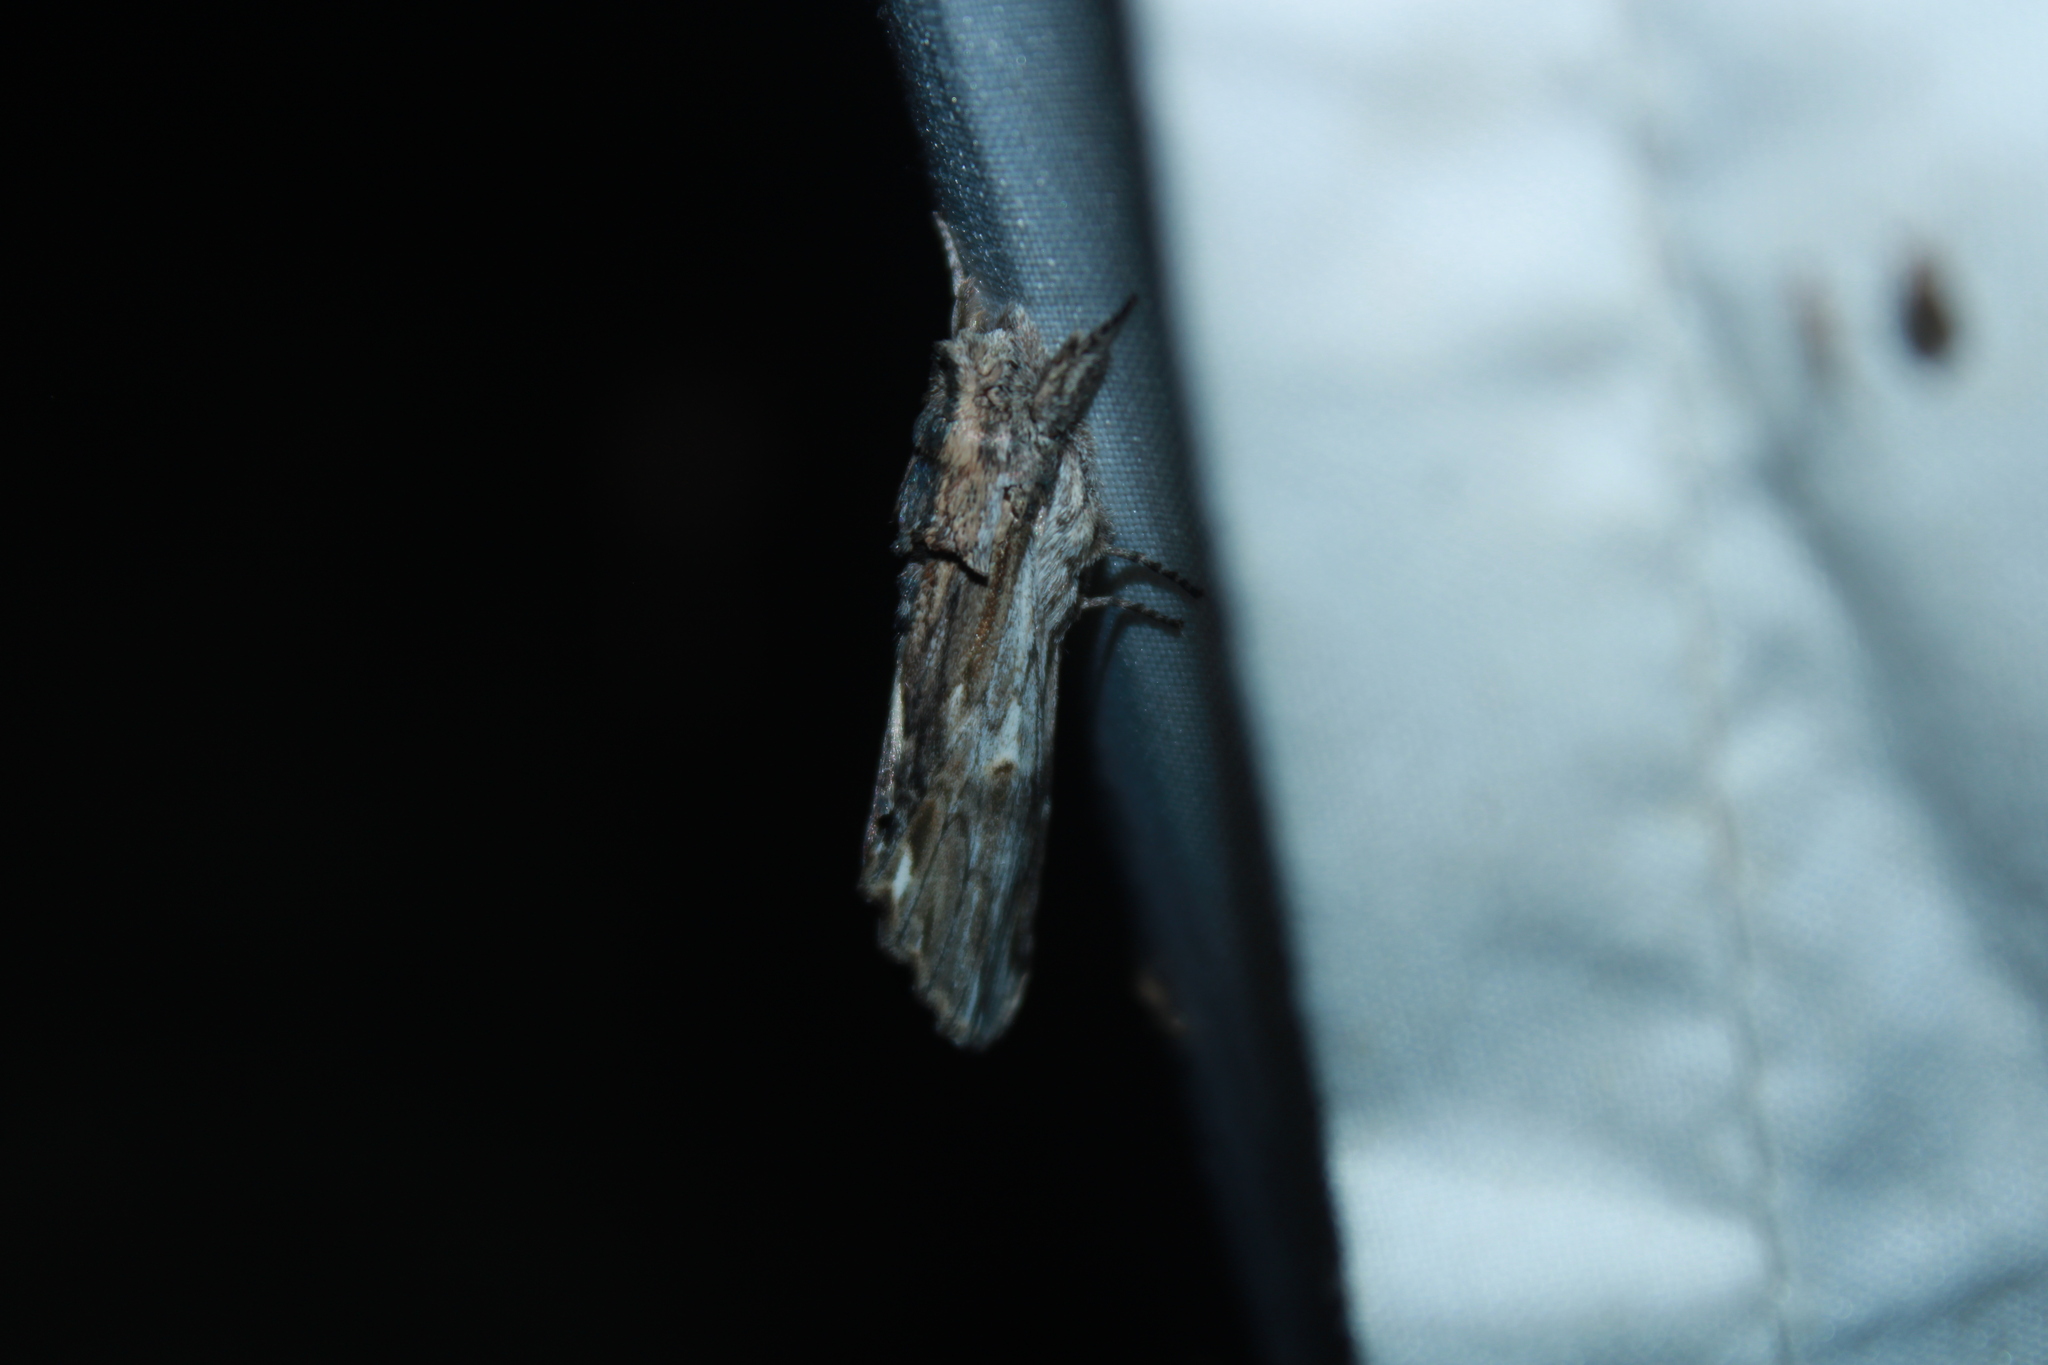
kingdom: Animalia
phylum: Arthropoda
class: Insecta
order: Lepidoptera
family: Notodontidae
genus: Oligocentria
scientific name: Oligocentria Ianassa lignicolor
